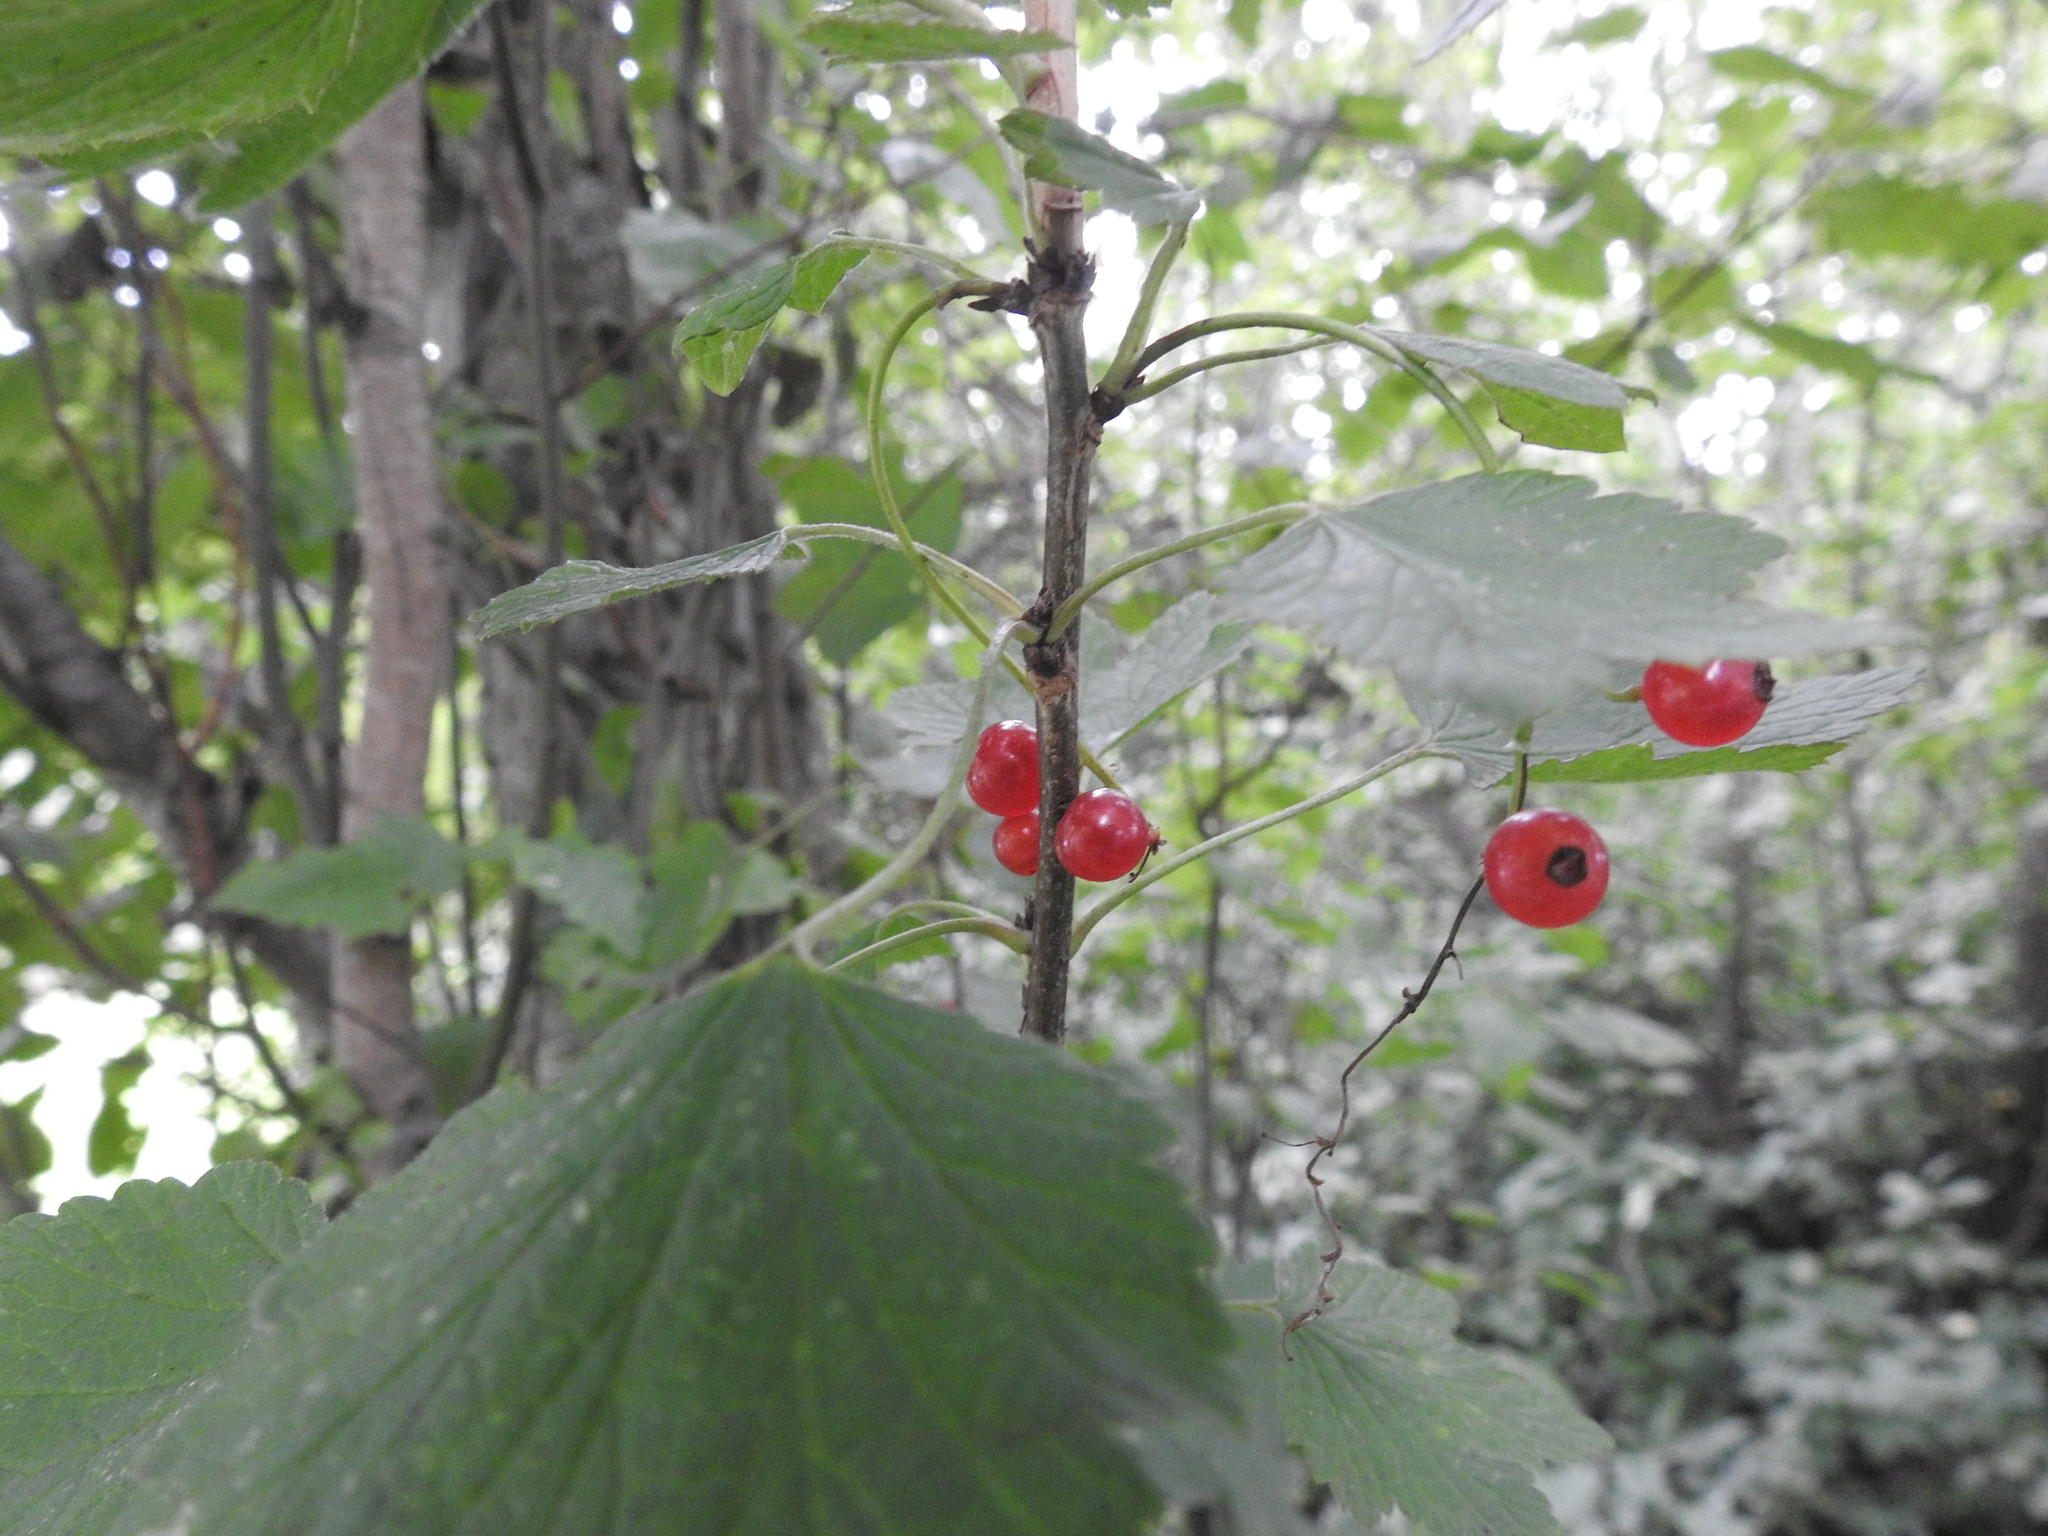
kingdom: Plantae
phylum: Tracheophyta
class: Magnoliopsida
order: Saxifragales
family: Grossulariaceae
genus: Ribes
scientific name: Ribes rubrum
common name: Red currant
